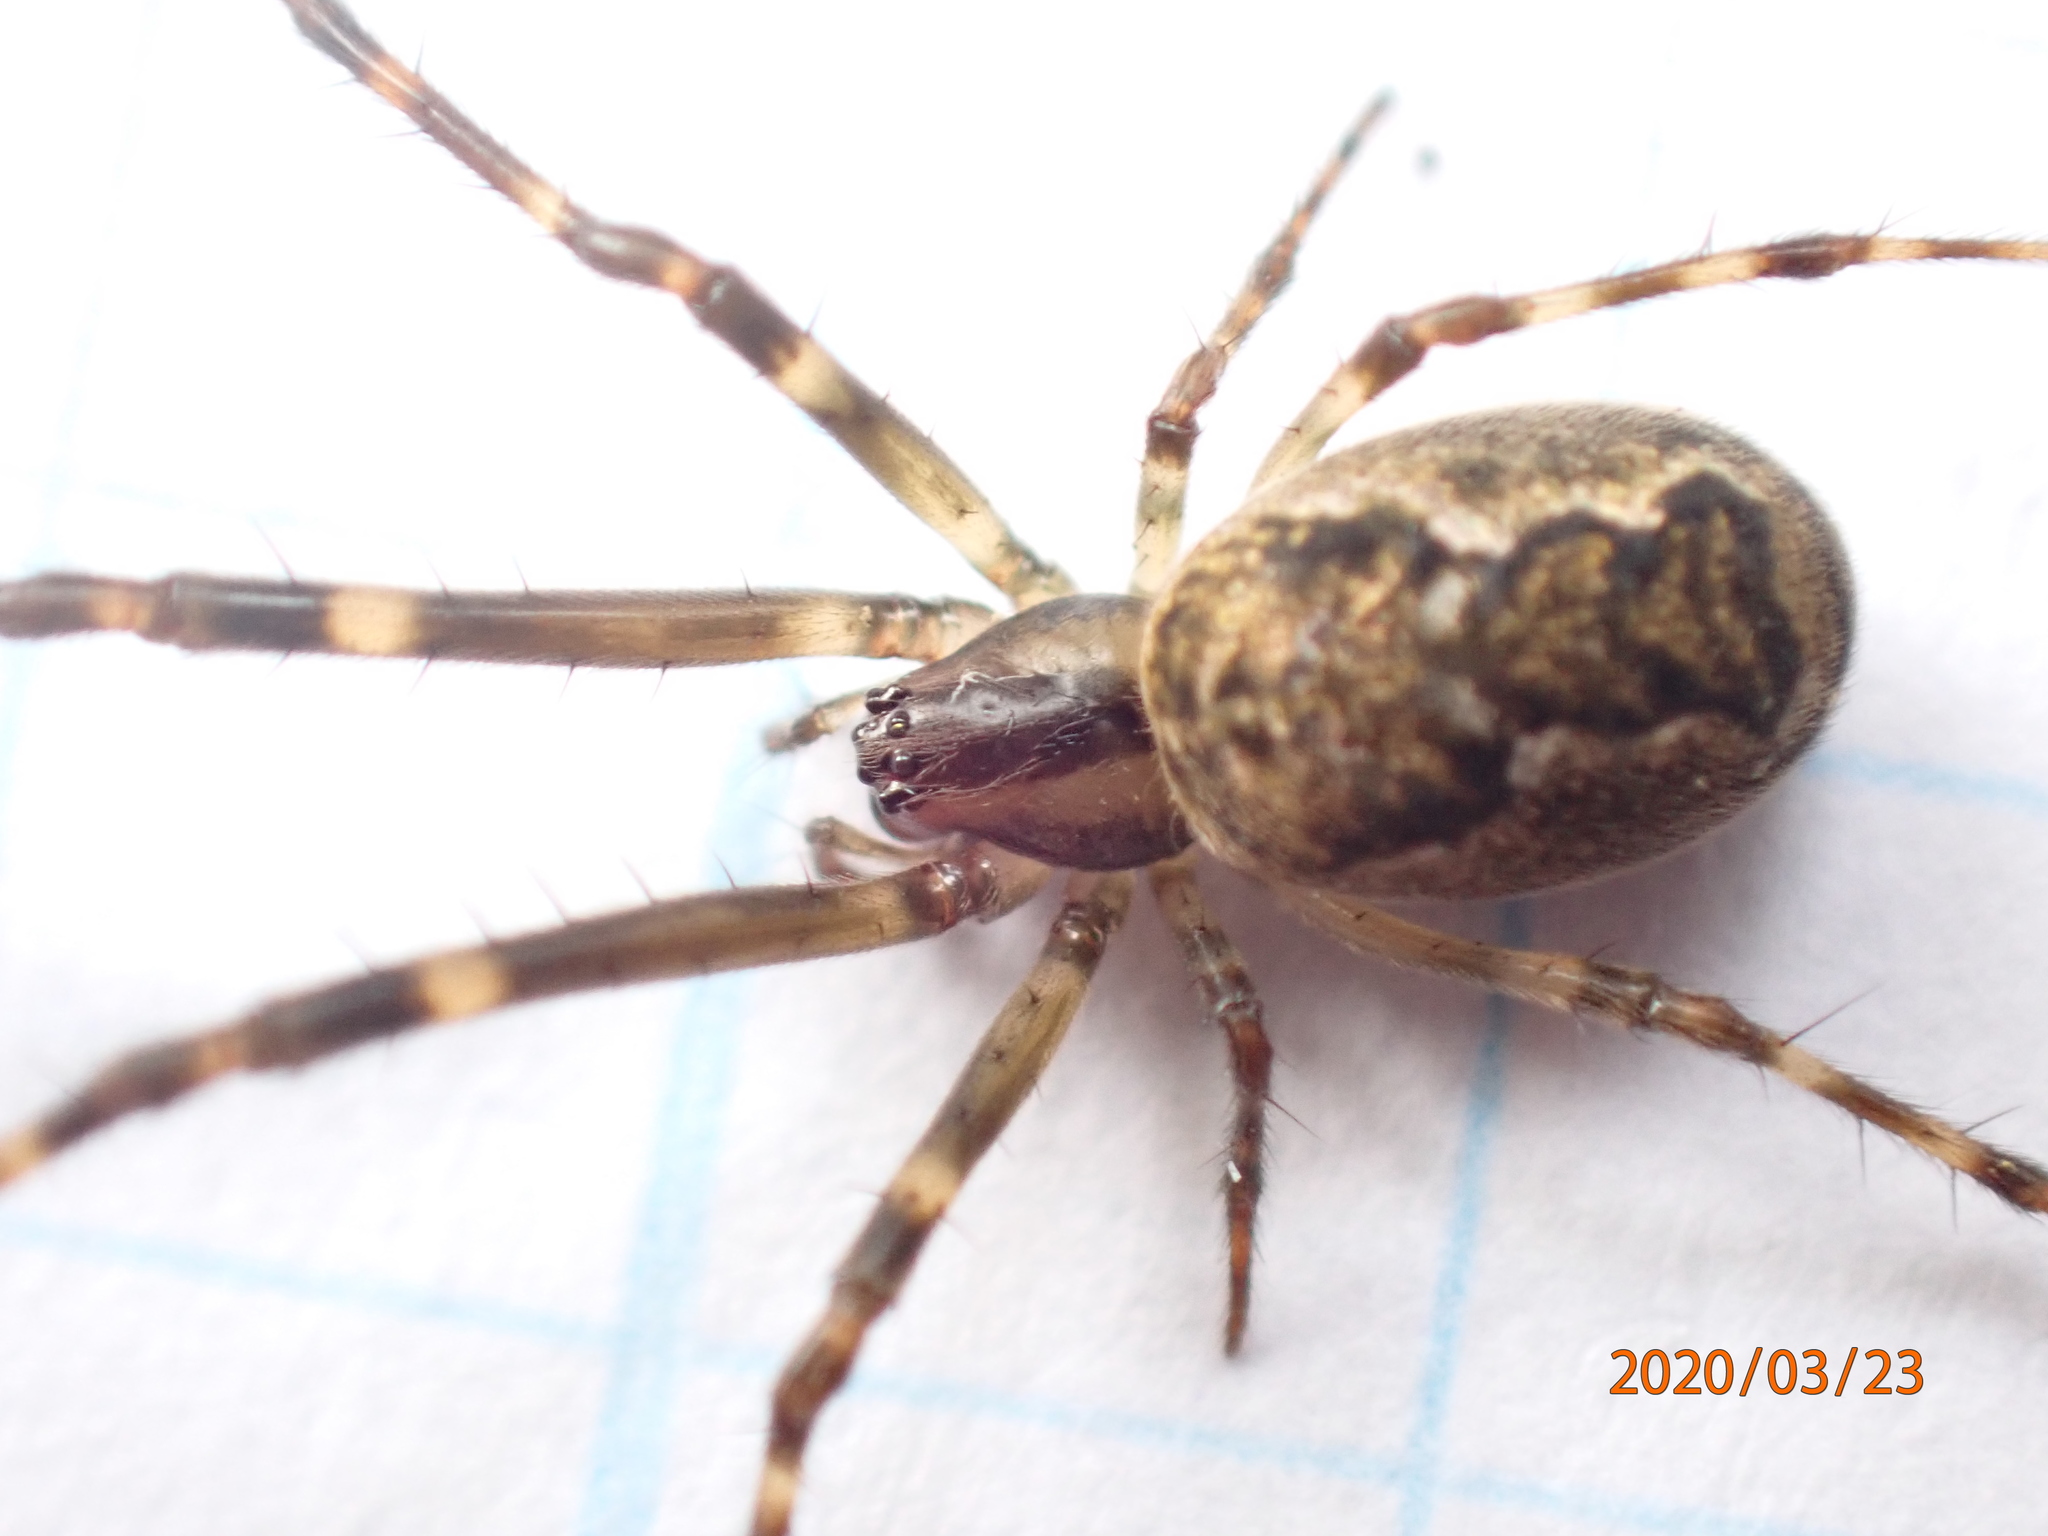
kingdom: Animalia
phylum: Arthropoda
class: Arachnida
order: Araneae
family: Tetragnathidae
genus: Nanometa
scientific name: Nanometa lagenifera
